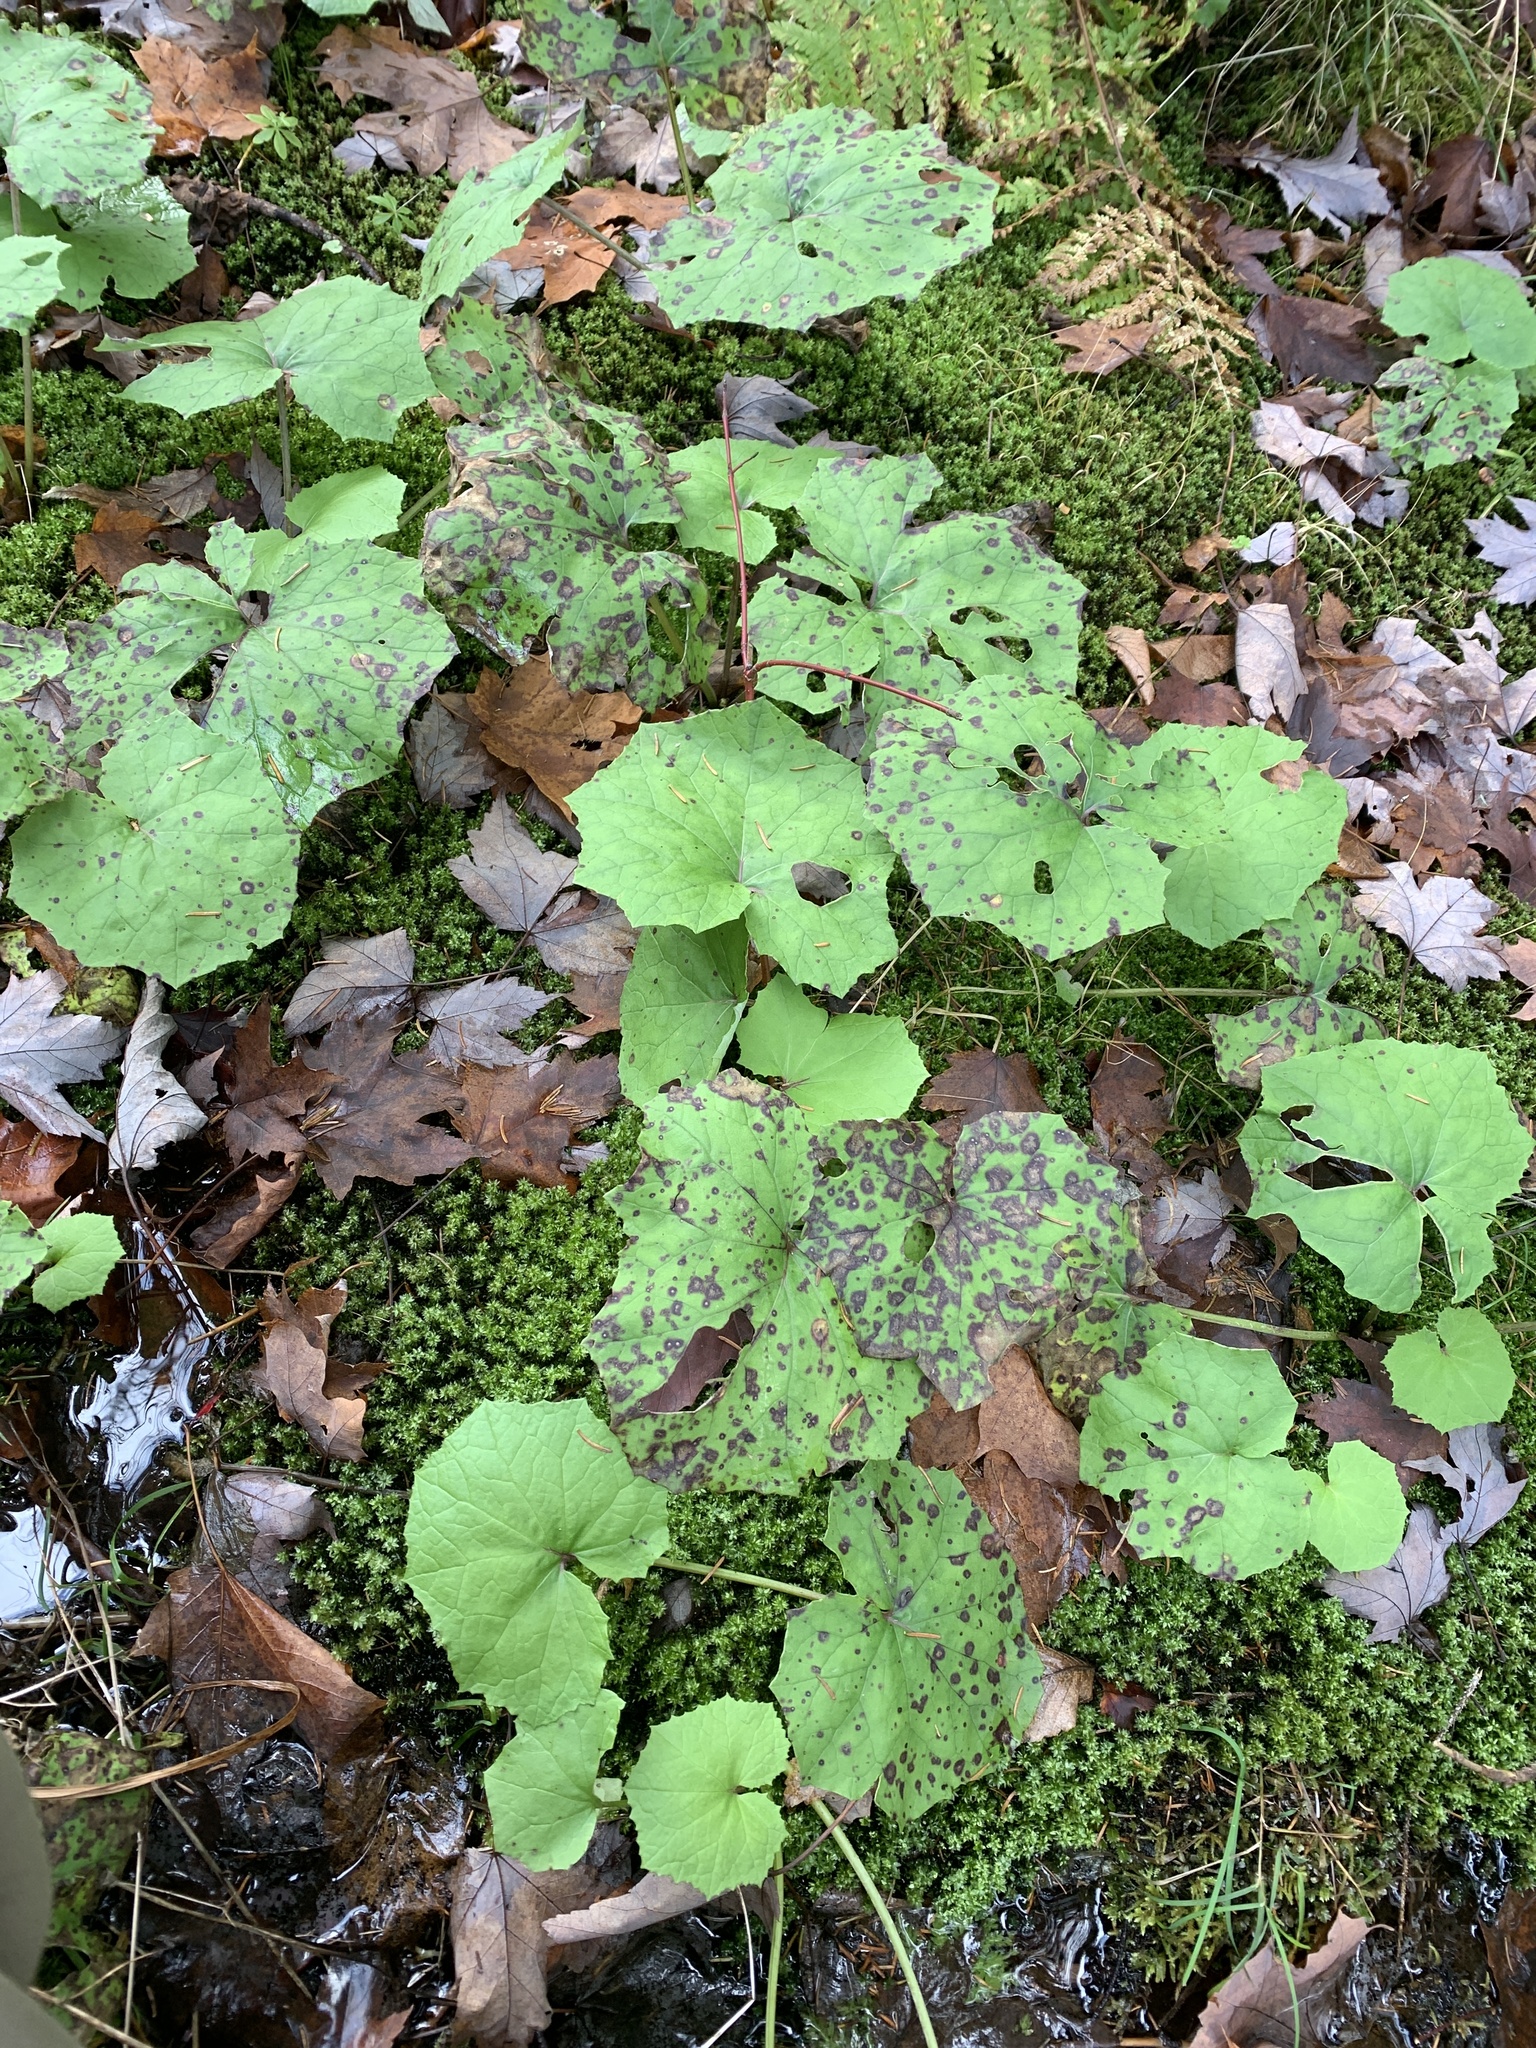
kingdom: Plantae
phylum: Tracheophyta
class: Magnoliopsida
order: Asterales
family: Asteraceae
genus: Tussilago
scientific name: Tussilago farfara
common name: Coltsfoot
